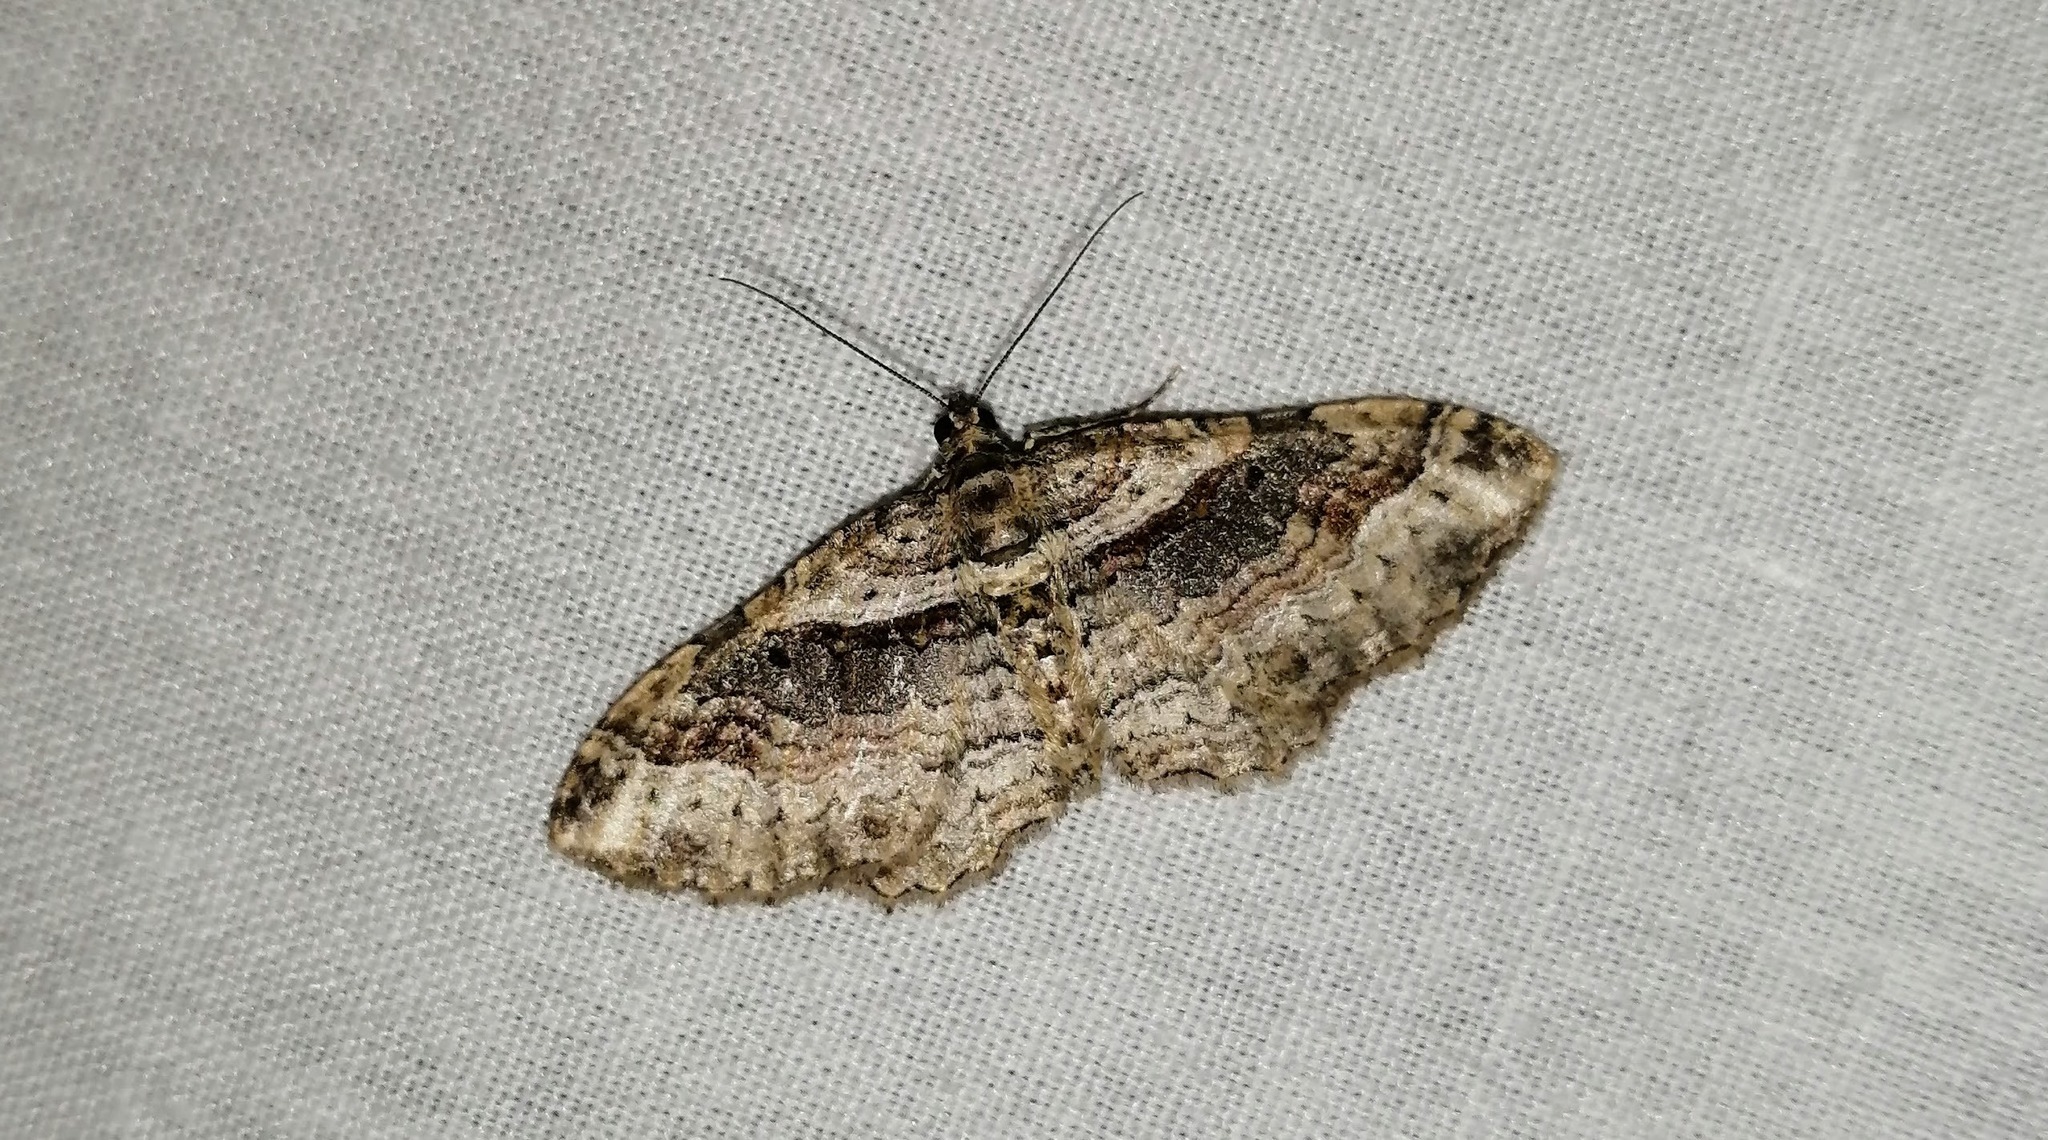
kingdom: Animalia
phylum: Arthropoda
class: Insecta
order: Lepidoptera
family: Geometridae
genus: Costaconvexa
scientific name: Costaconvexa centrostrigaria
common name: Bent-line carpet
